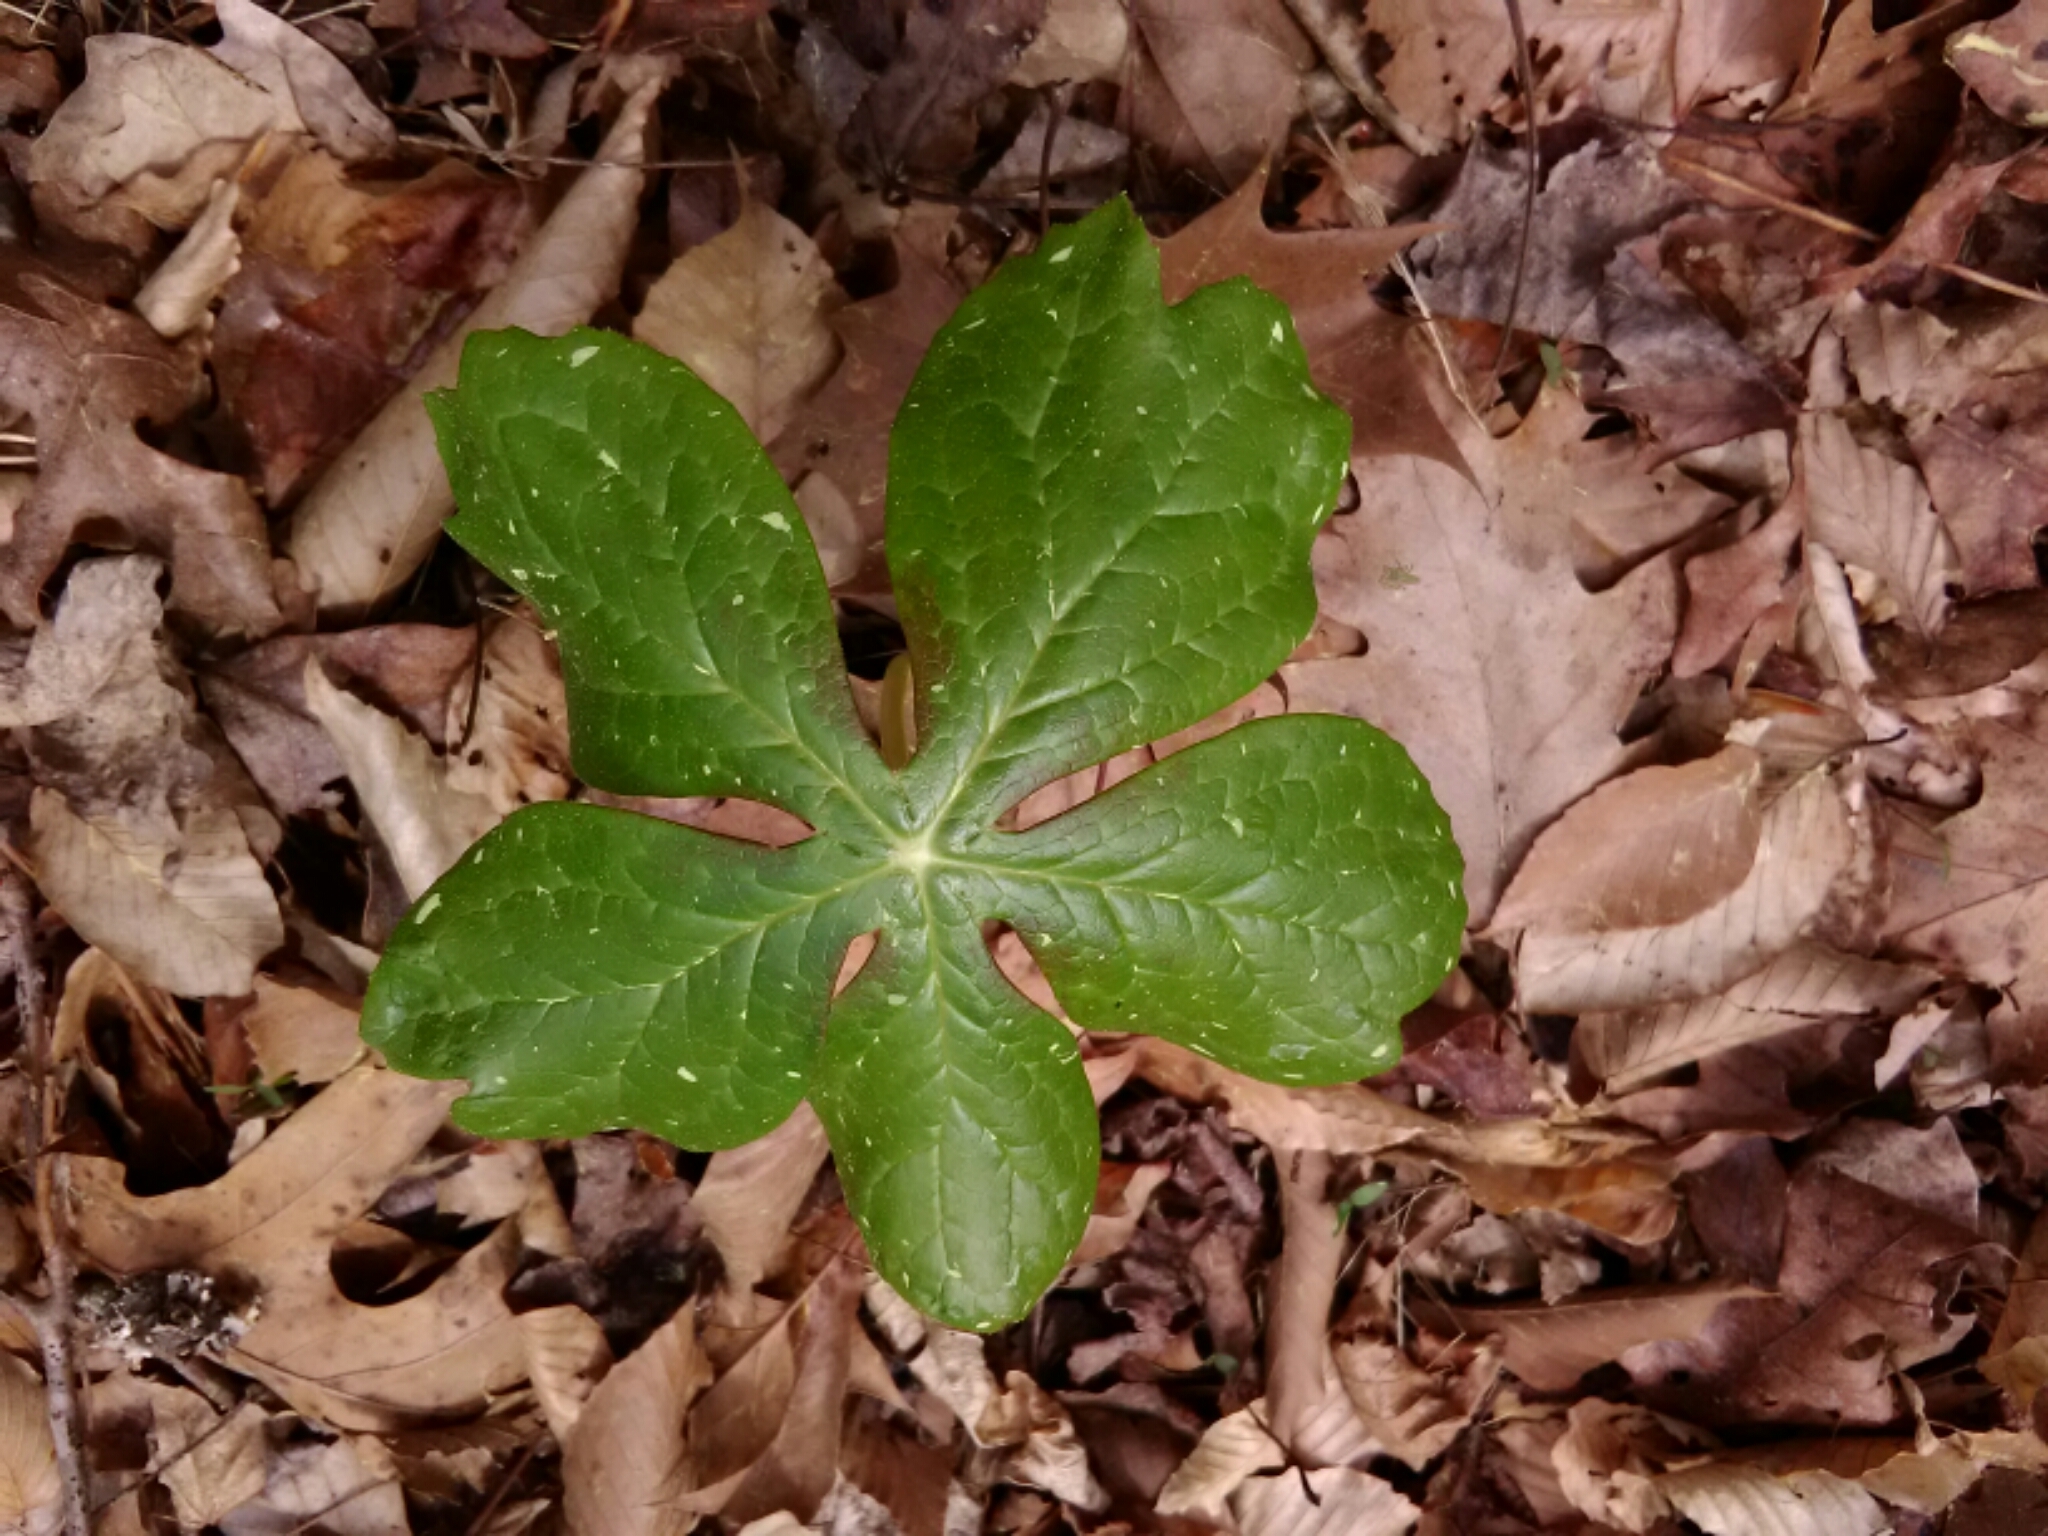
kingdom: Plantae
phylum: Tracheophyta
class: Magnoliopsida
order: Ranunculales
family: Berberidaceae
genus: Podophyllum
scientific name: Podophyllum peltatum
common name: Wild mandrake
